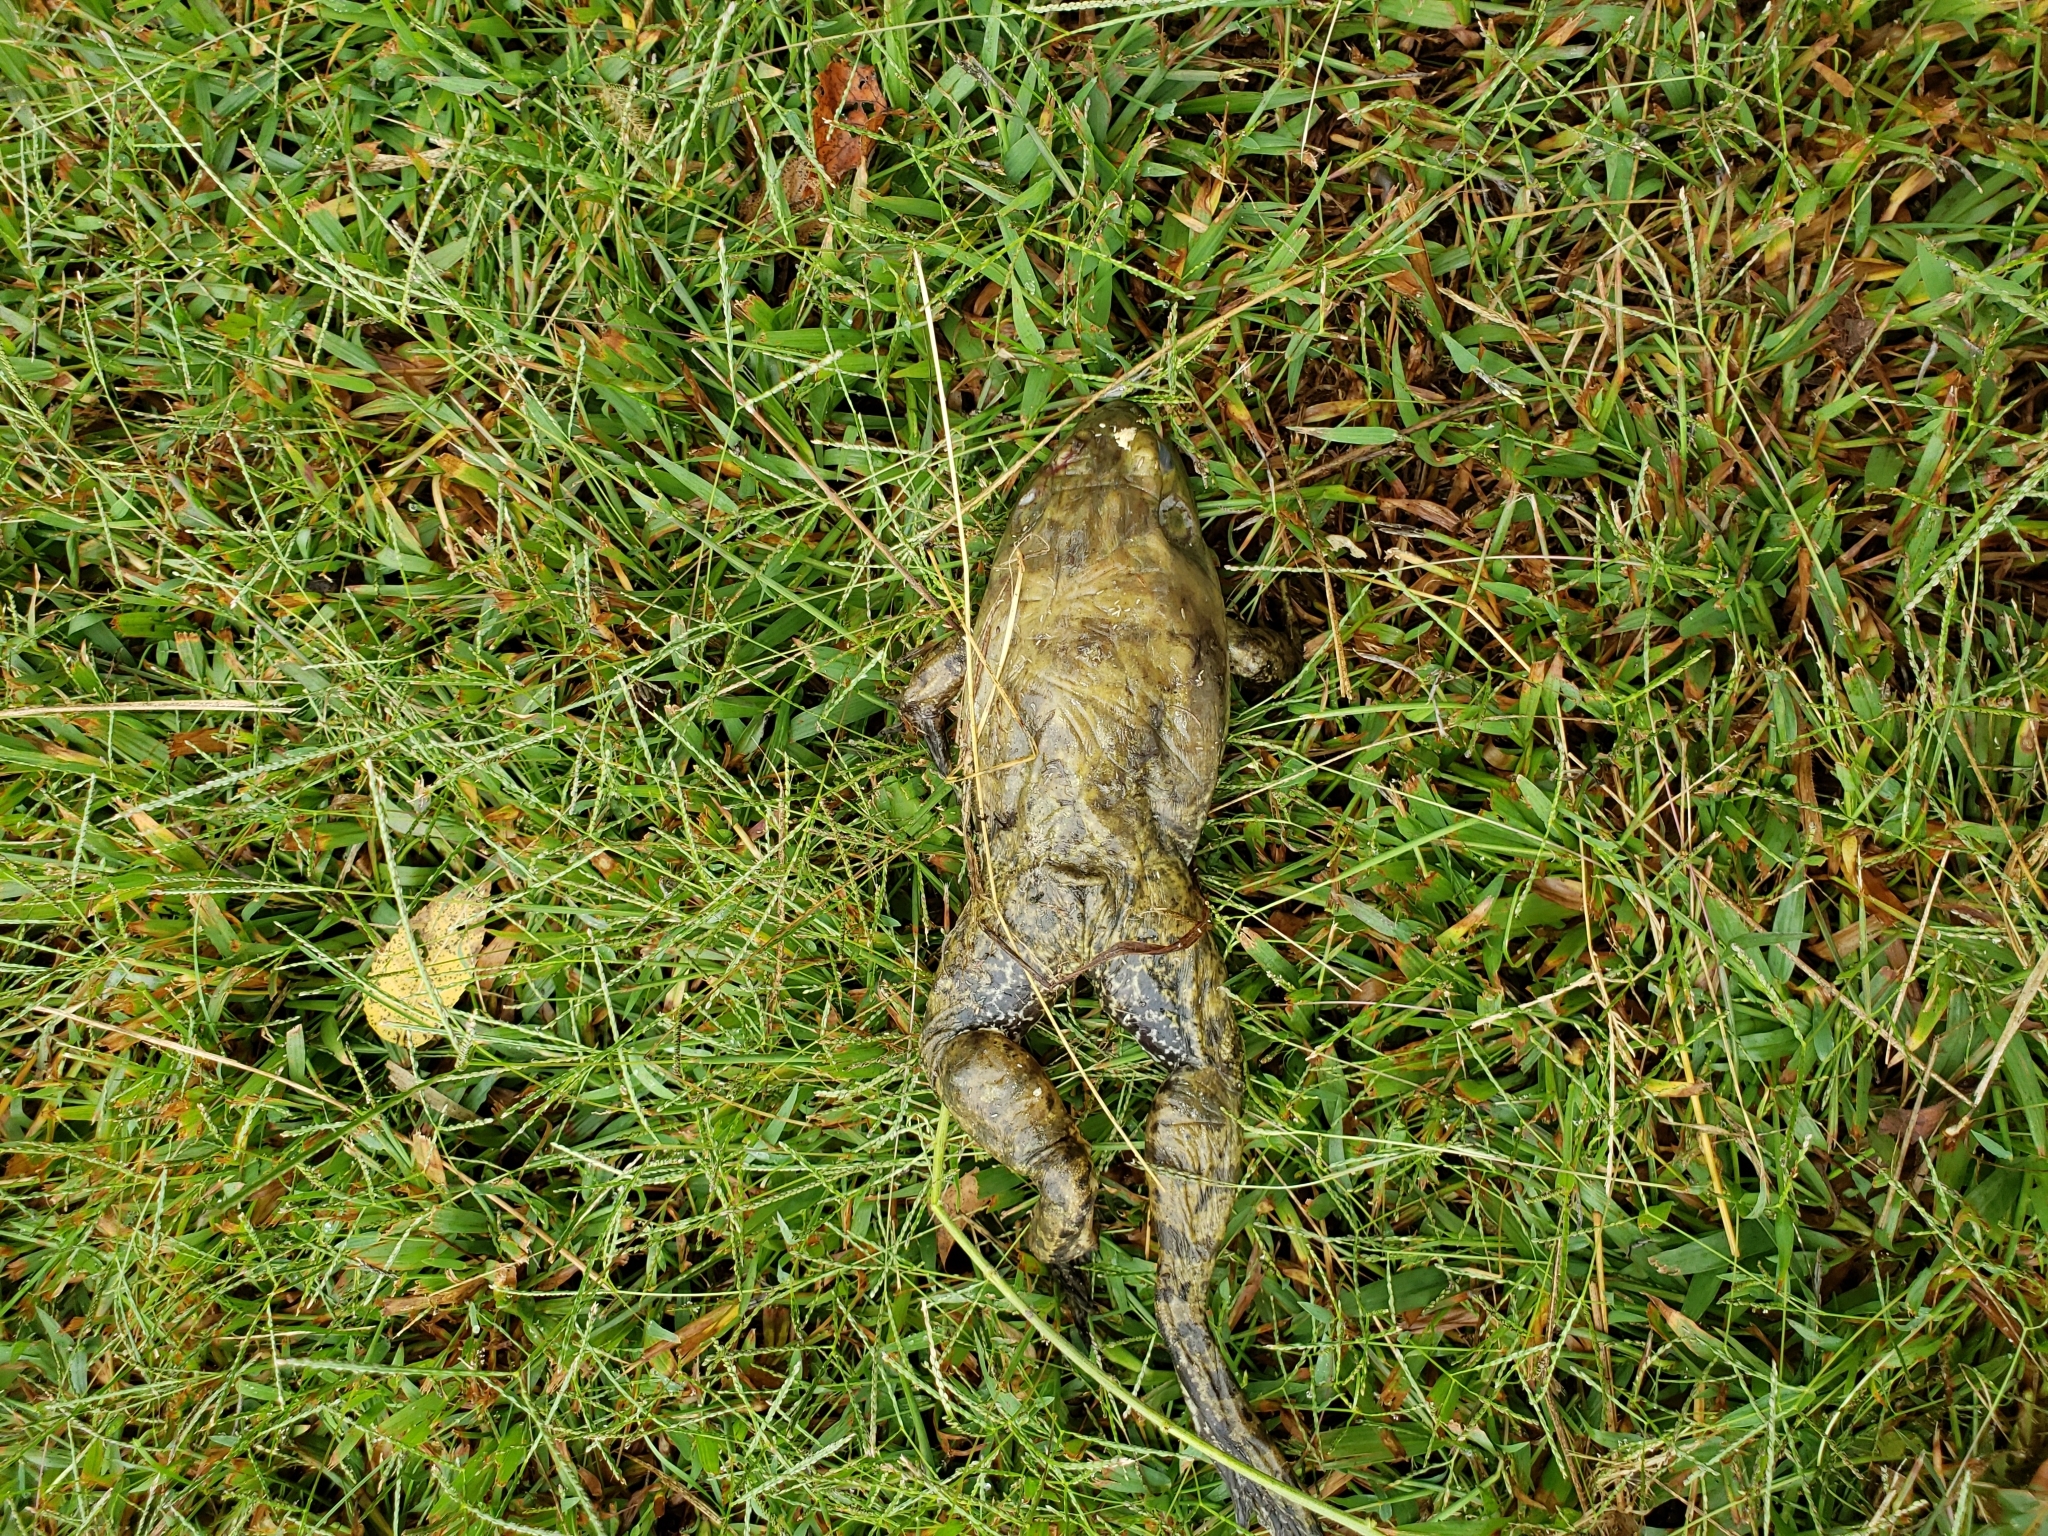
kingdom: Animalia
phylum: Chordata
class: Amphibia
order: Anura
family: Ranidae
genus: Lithobates
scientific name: Lithobates catesbeianus
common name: American bullfrog
